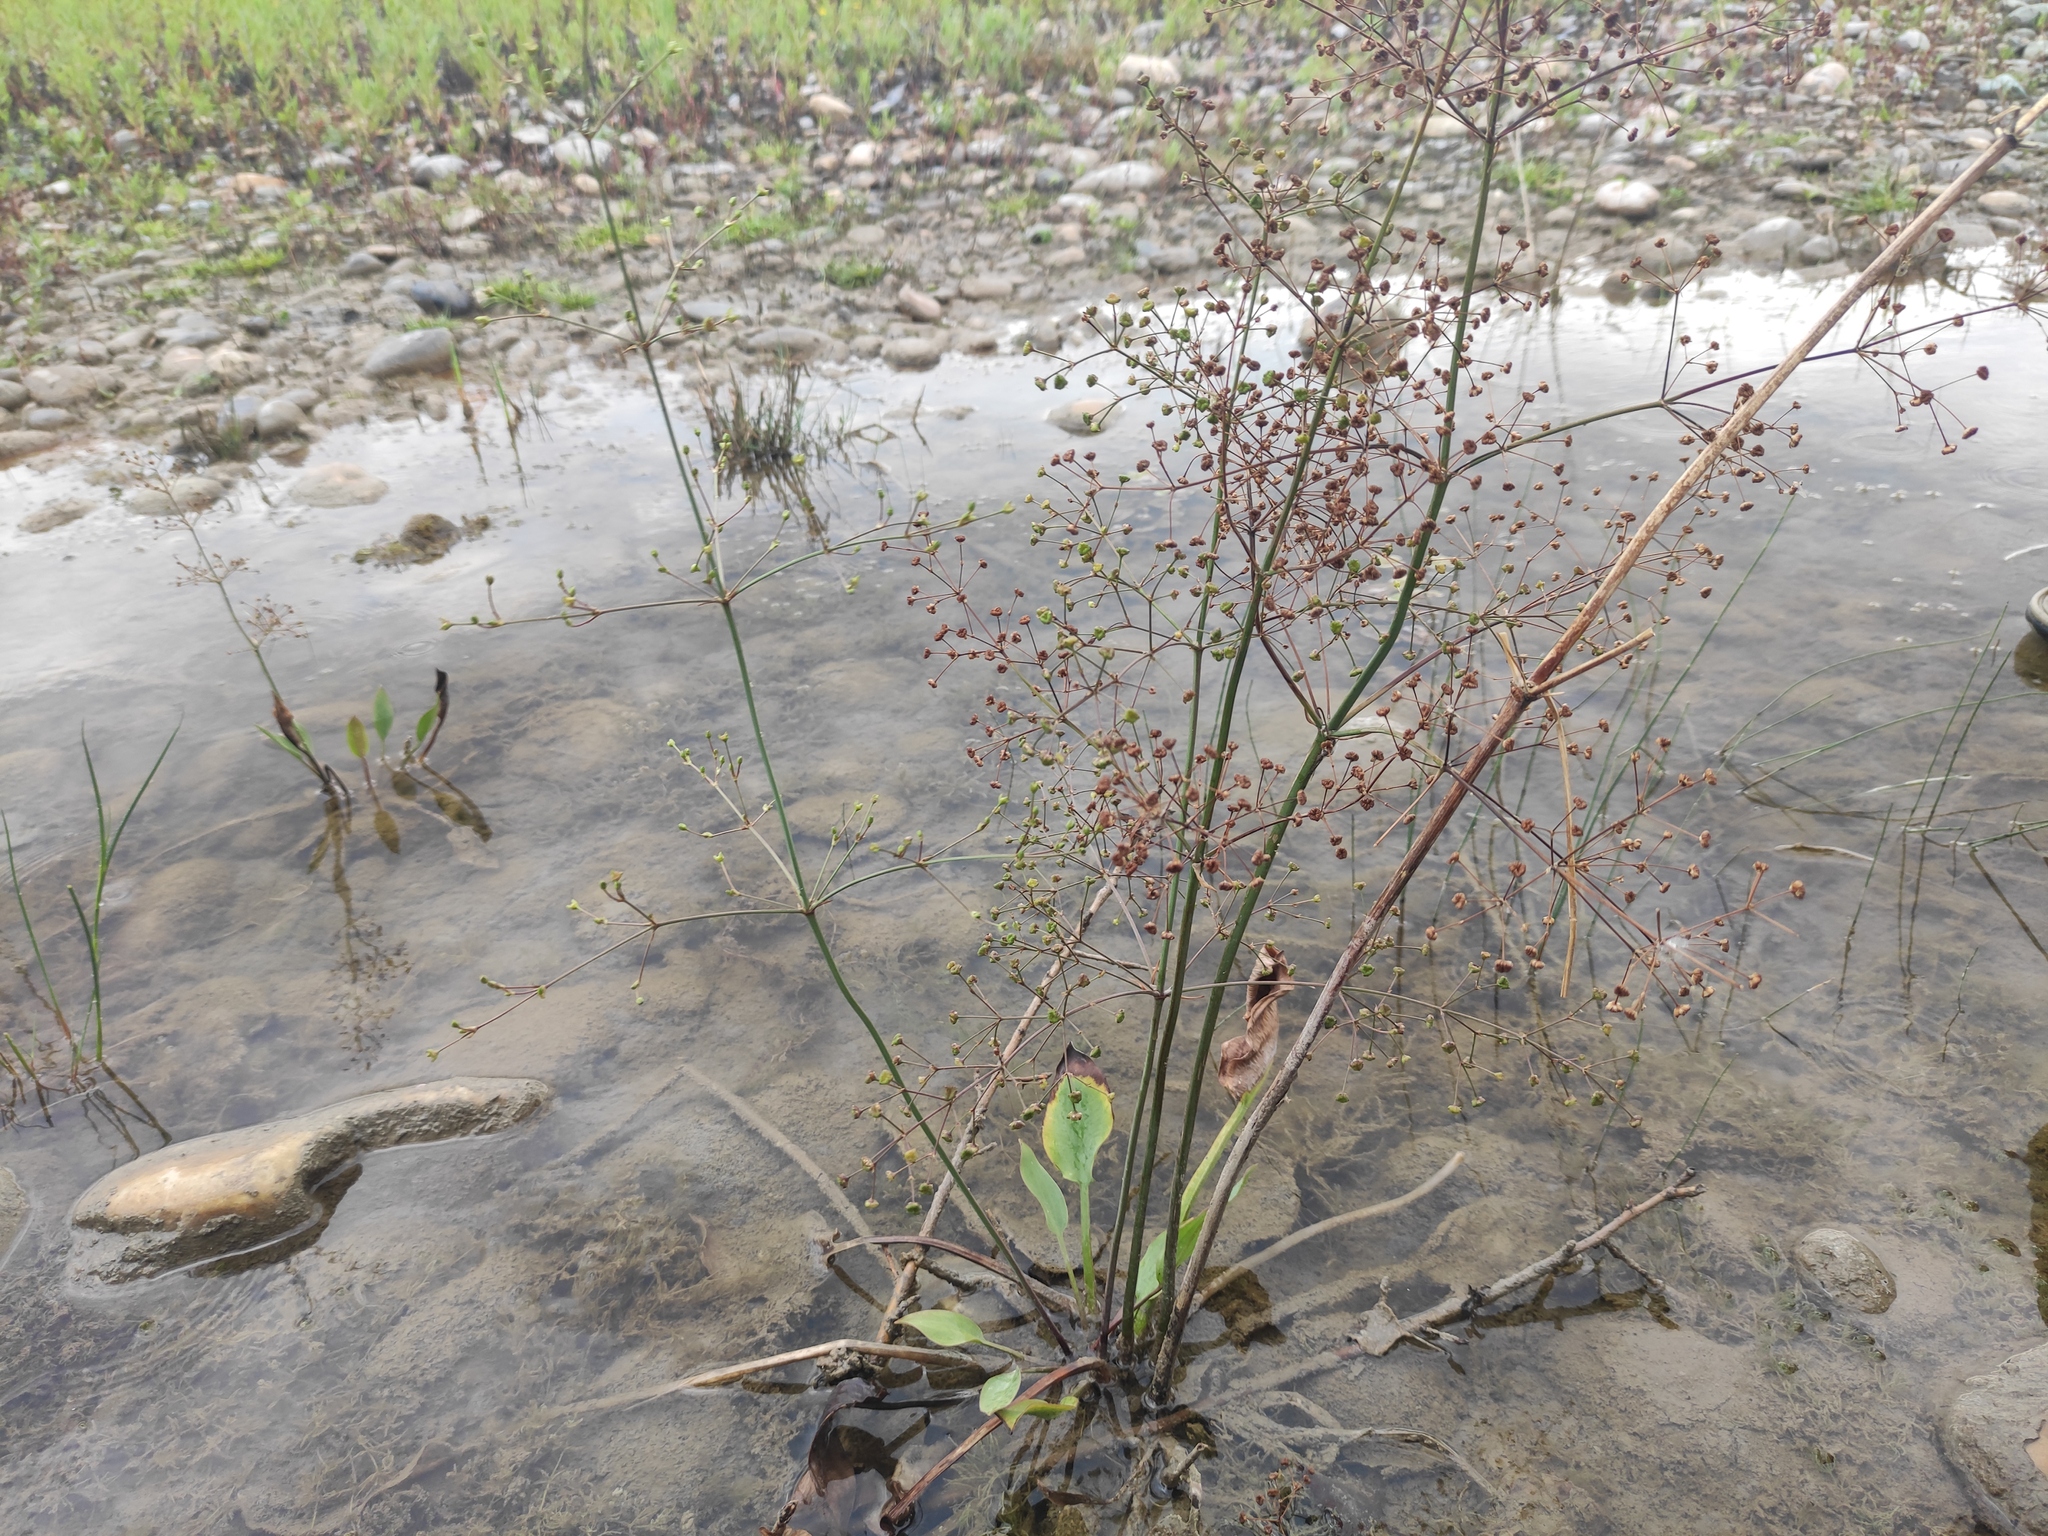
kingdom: Plantae
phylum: Tracheophyta
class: Liliopsida
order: Alismatales
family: Alismataceae
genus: Alisma
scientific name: Alisma plantago-aquatica
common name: Water-plantain
